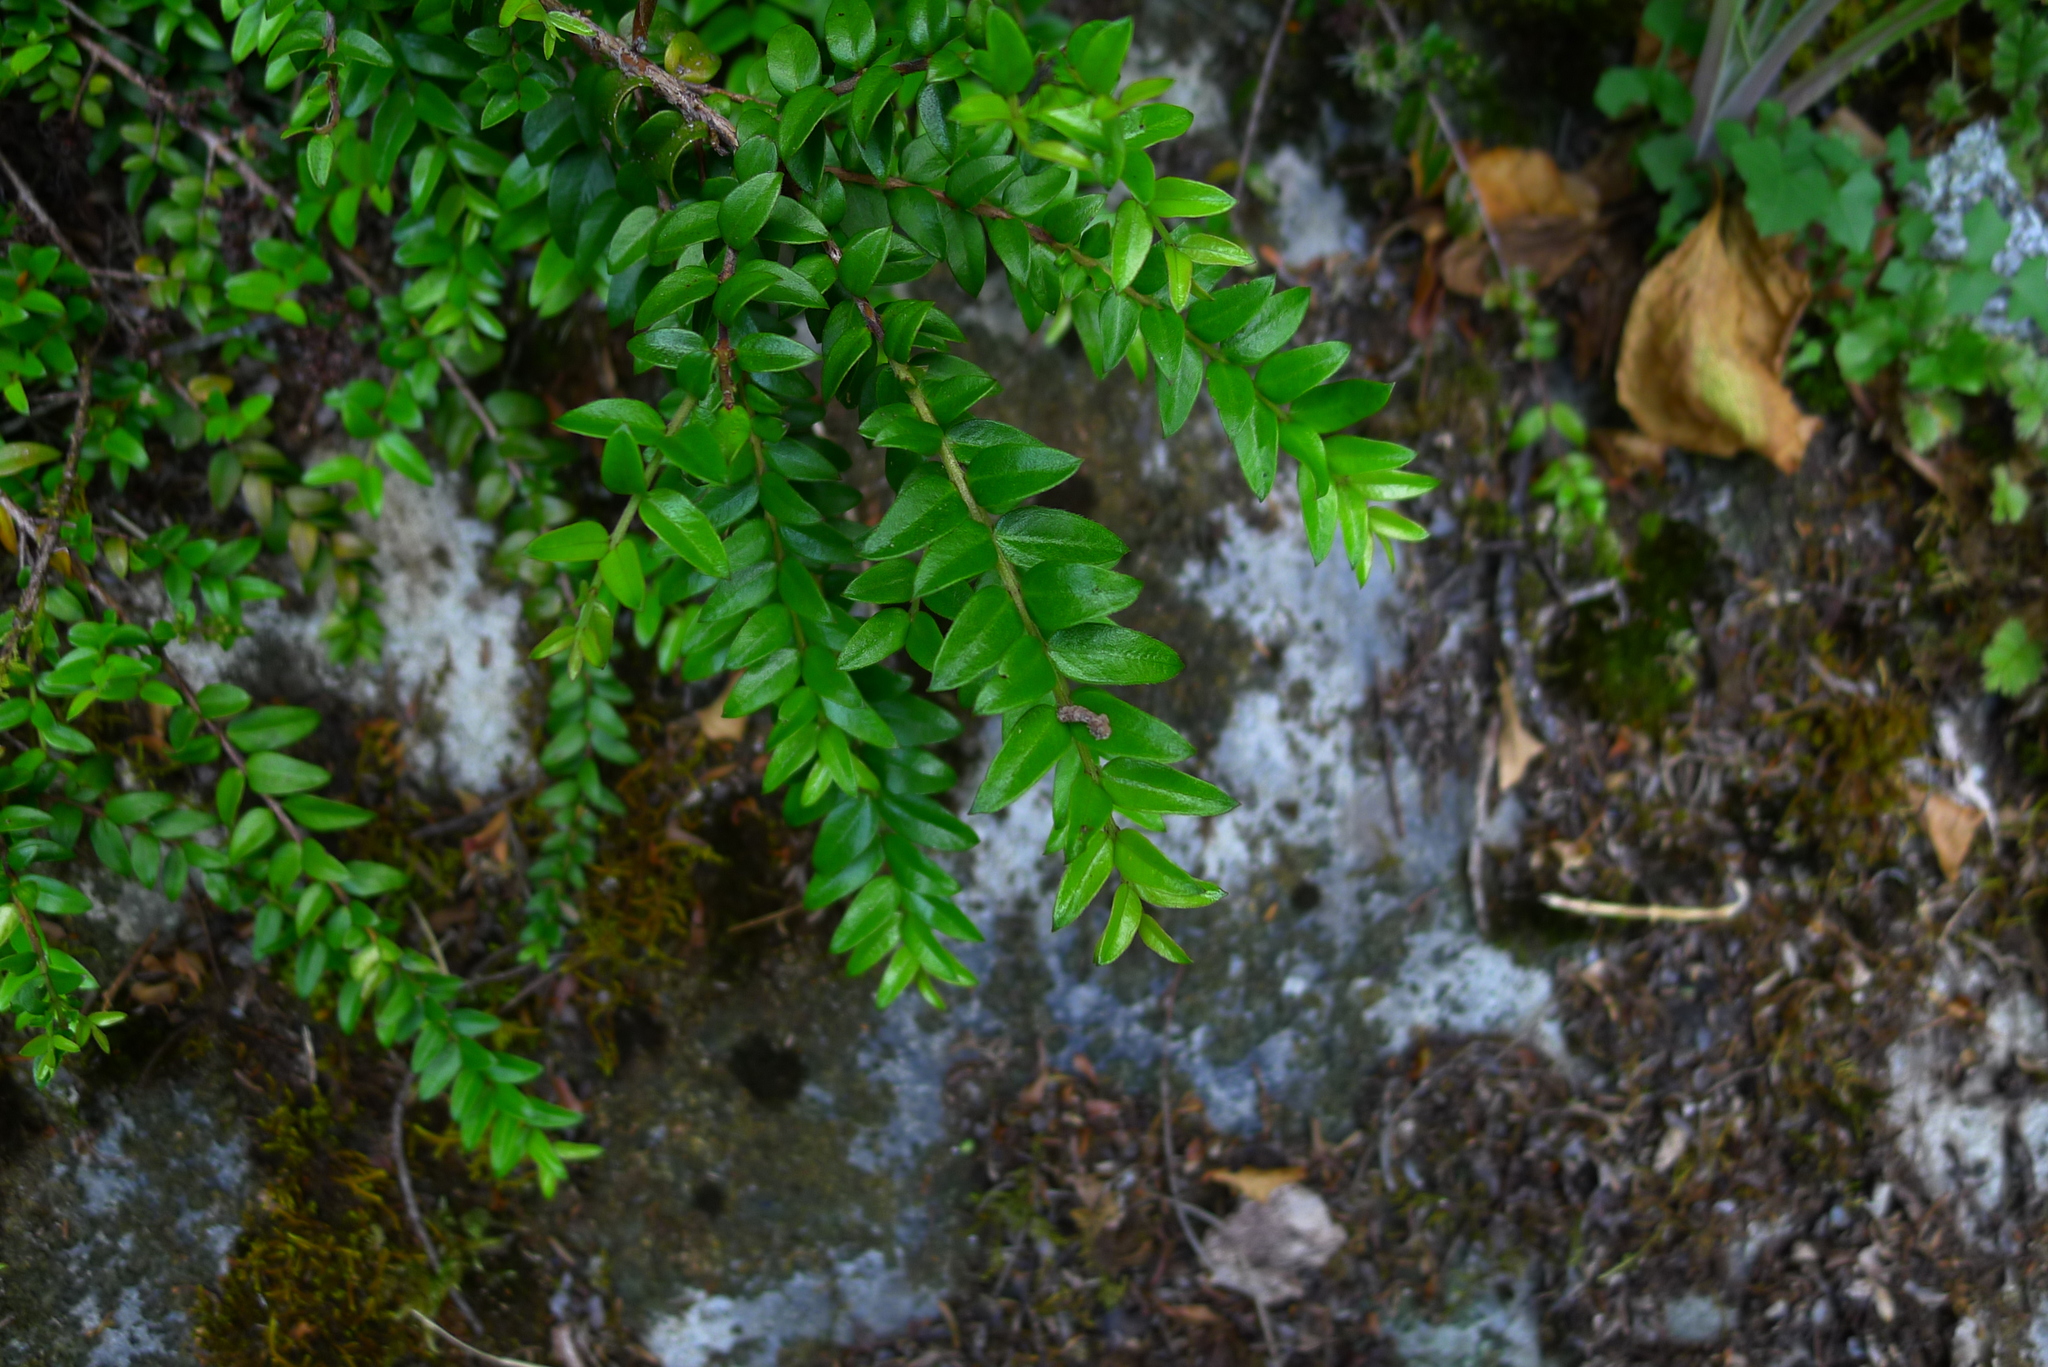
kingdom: Plantae
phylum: Tracheophyta
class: Magnoliopsida
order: Myrtales
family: Myrtaceae
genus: Metrosideros
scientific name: Metrosideros diffusa
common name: Small ratavine
